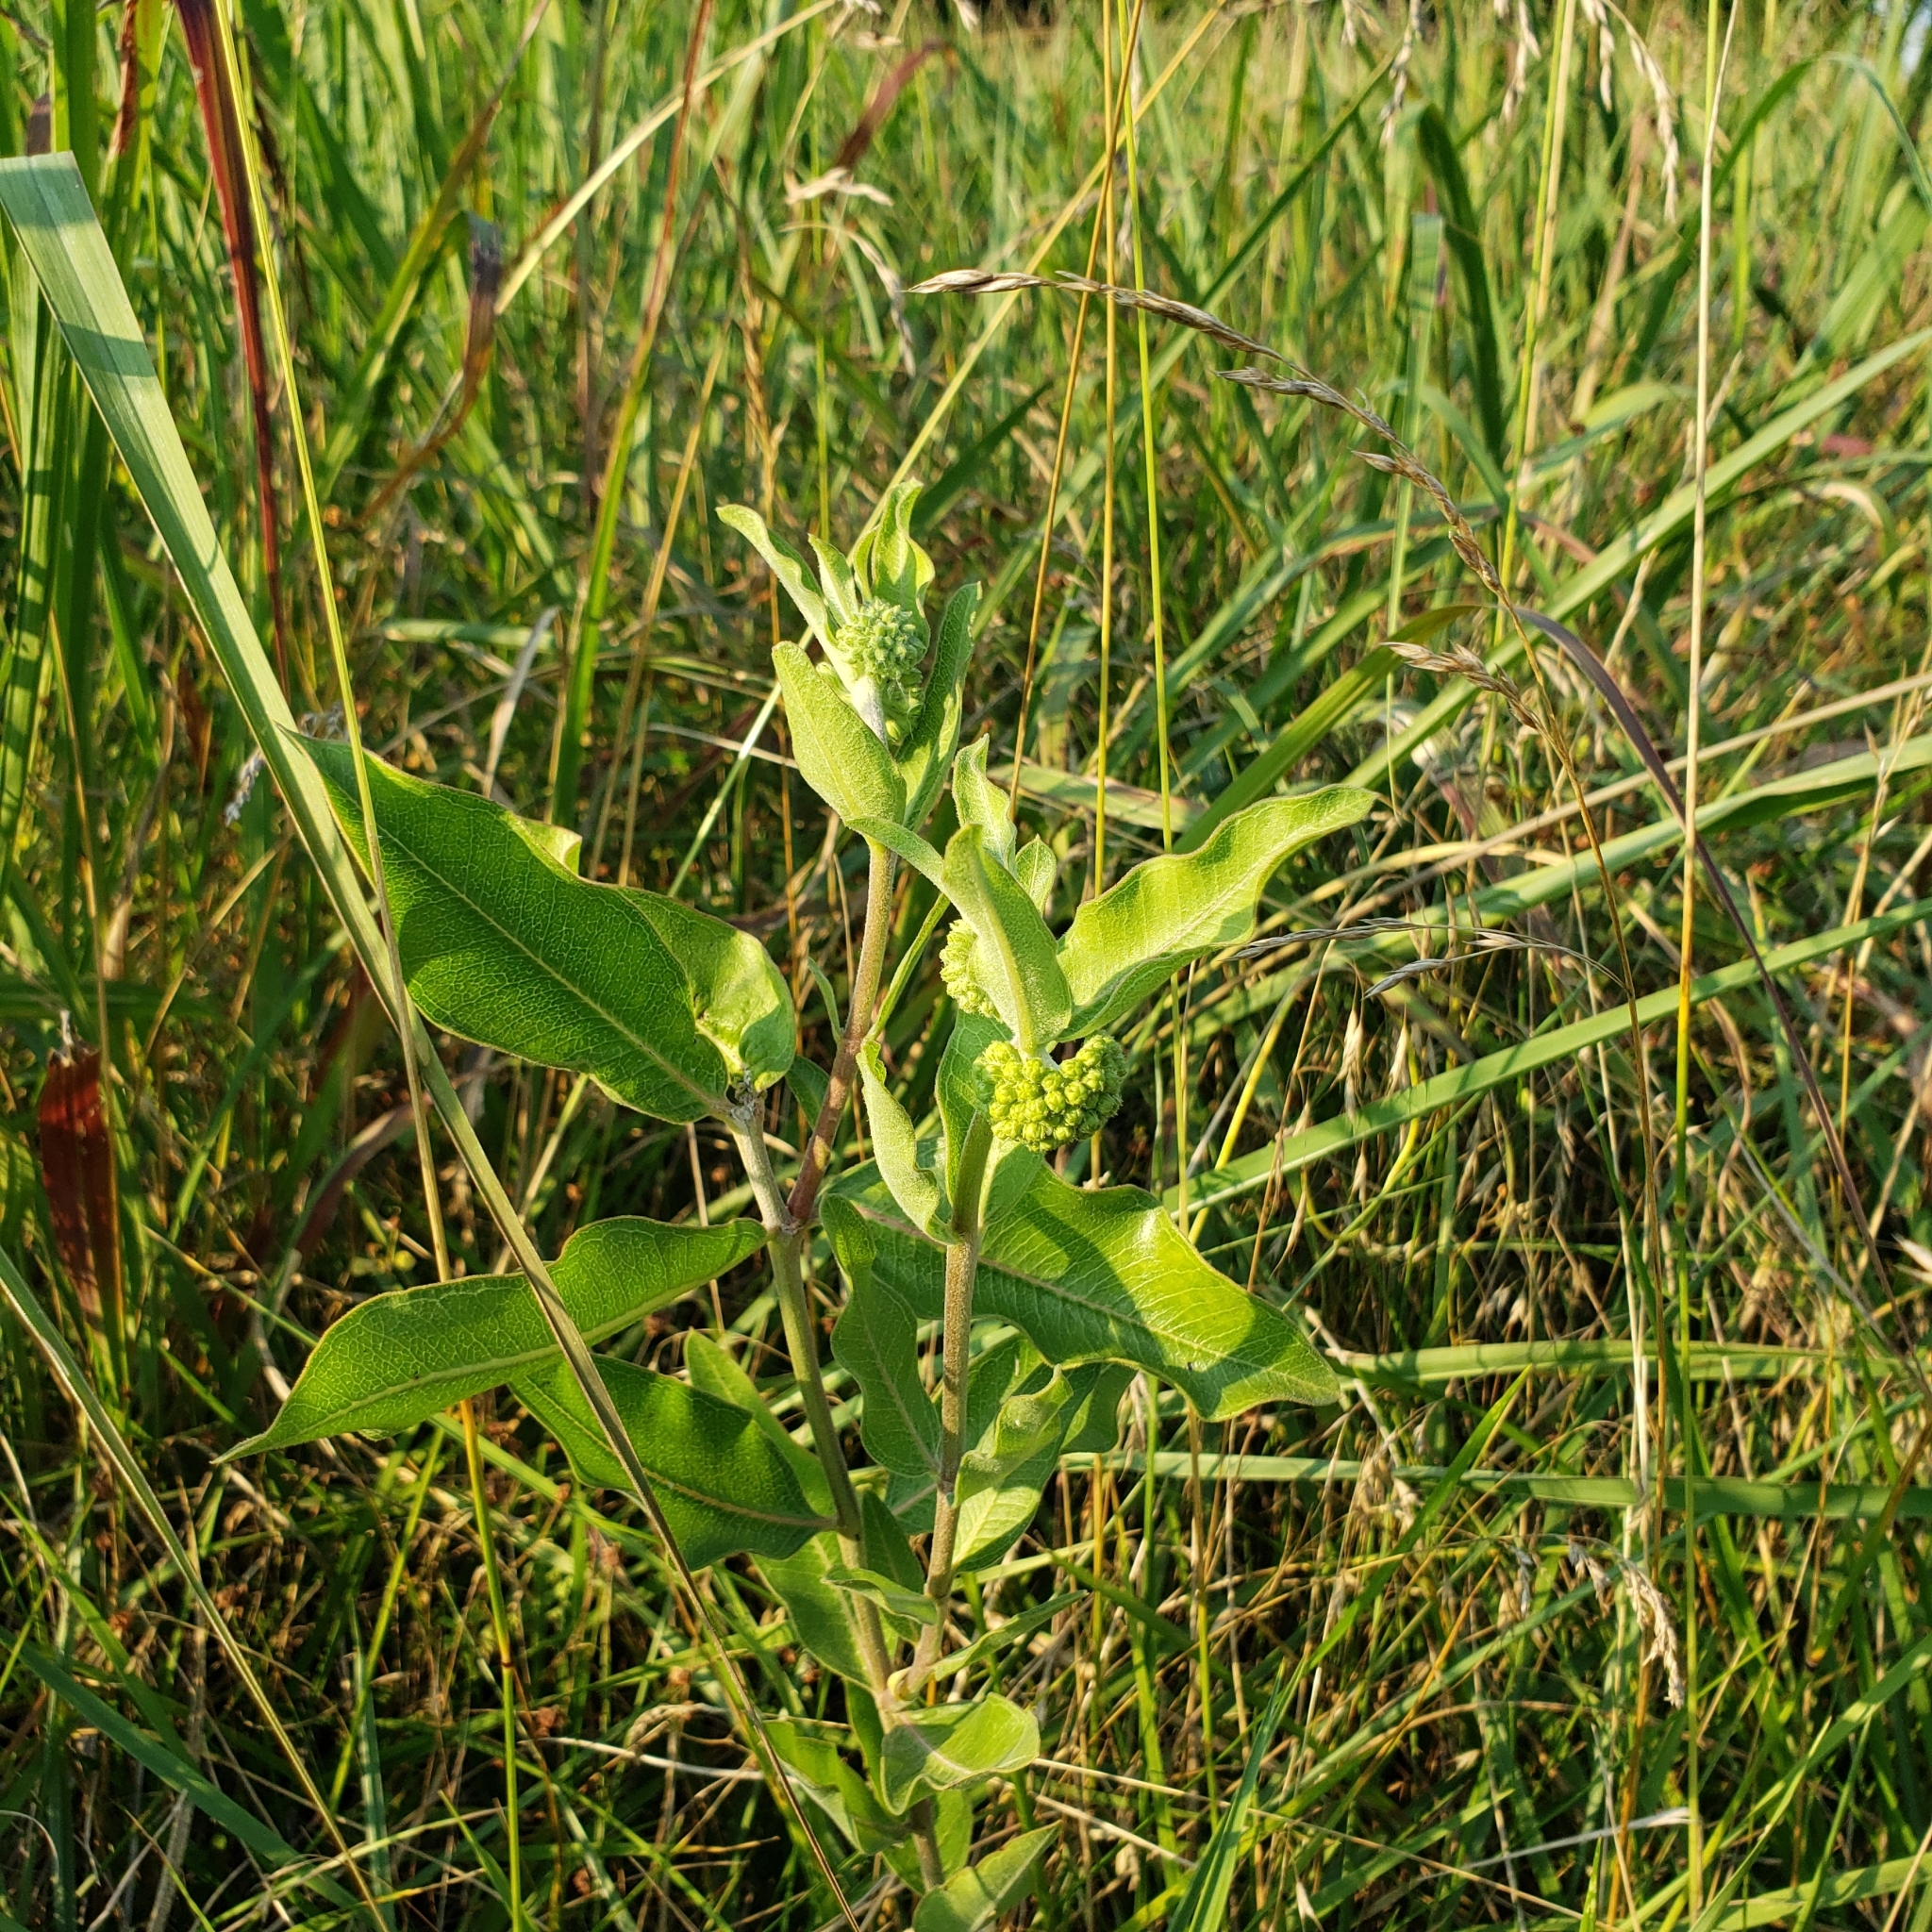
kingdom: Plantae
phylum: Tracheophyta
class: Magnoliopsida
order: Gentianales
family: Apocynaceae
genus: Asclepias
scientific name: Asclepias viridiflora
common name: Green comet milkweed
